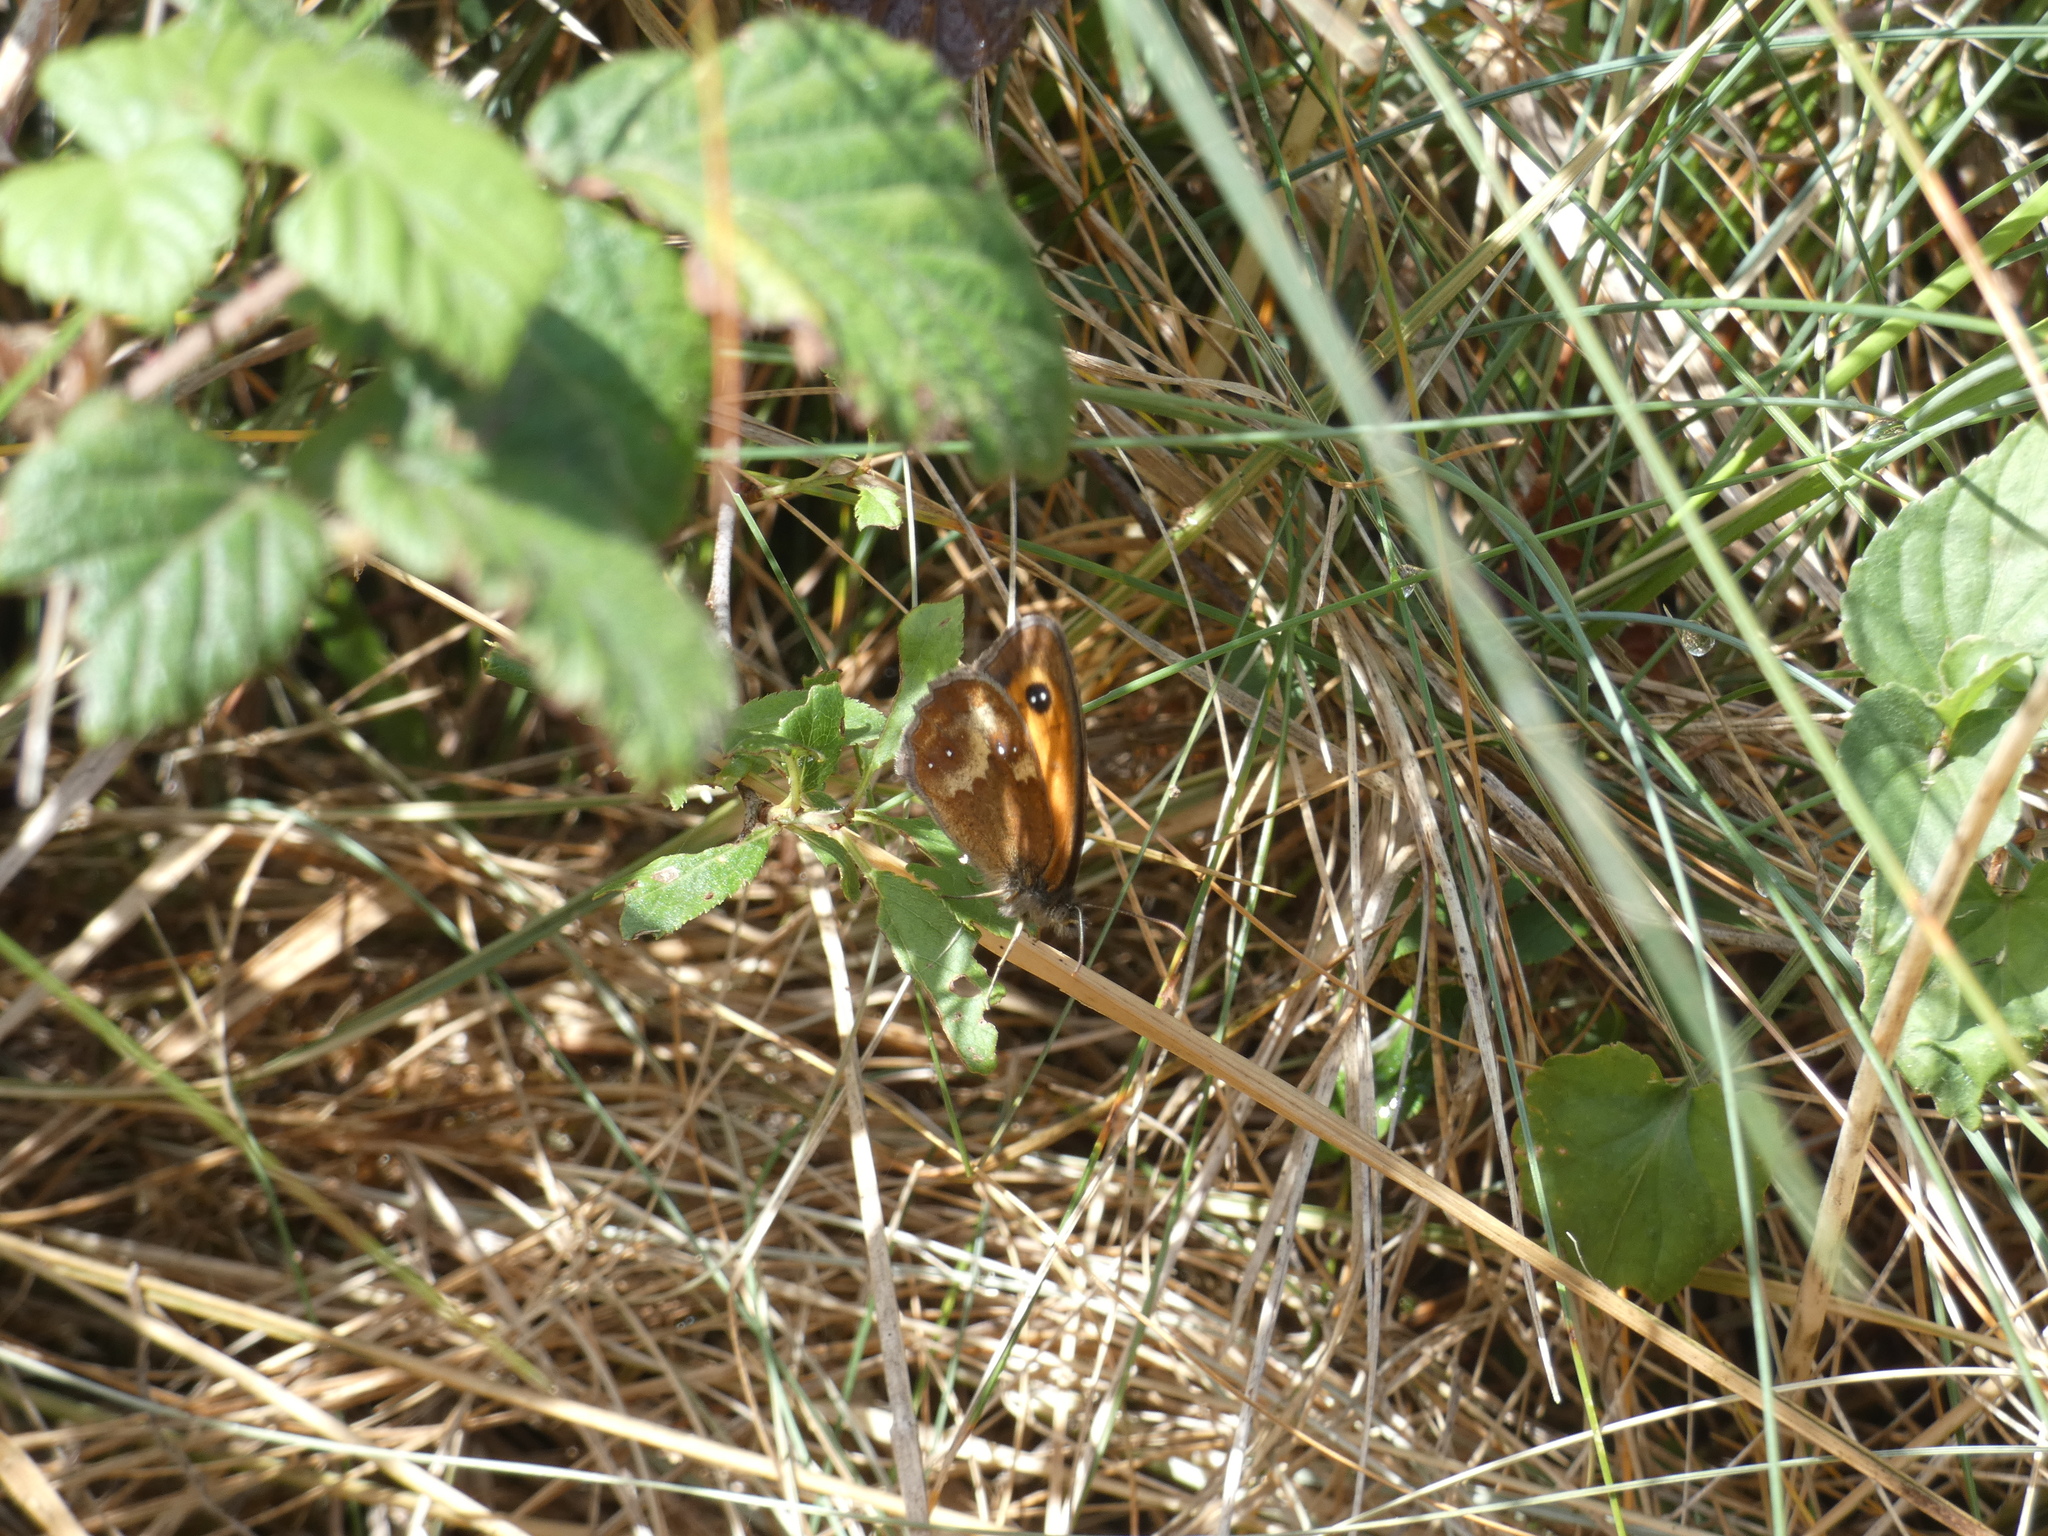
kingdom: Animalia
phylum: Arthropoda
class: Insecta
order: Lepidoptera
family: Nymphalidae
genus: Pyronia
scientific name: Pyronia tithonus
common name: Gatekeeper
